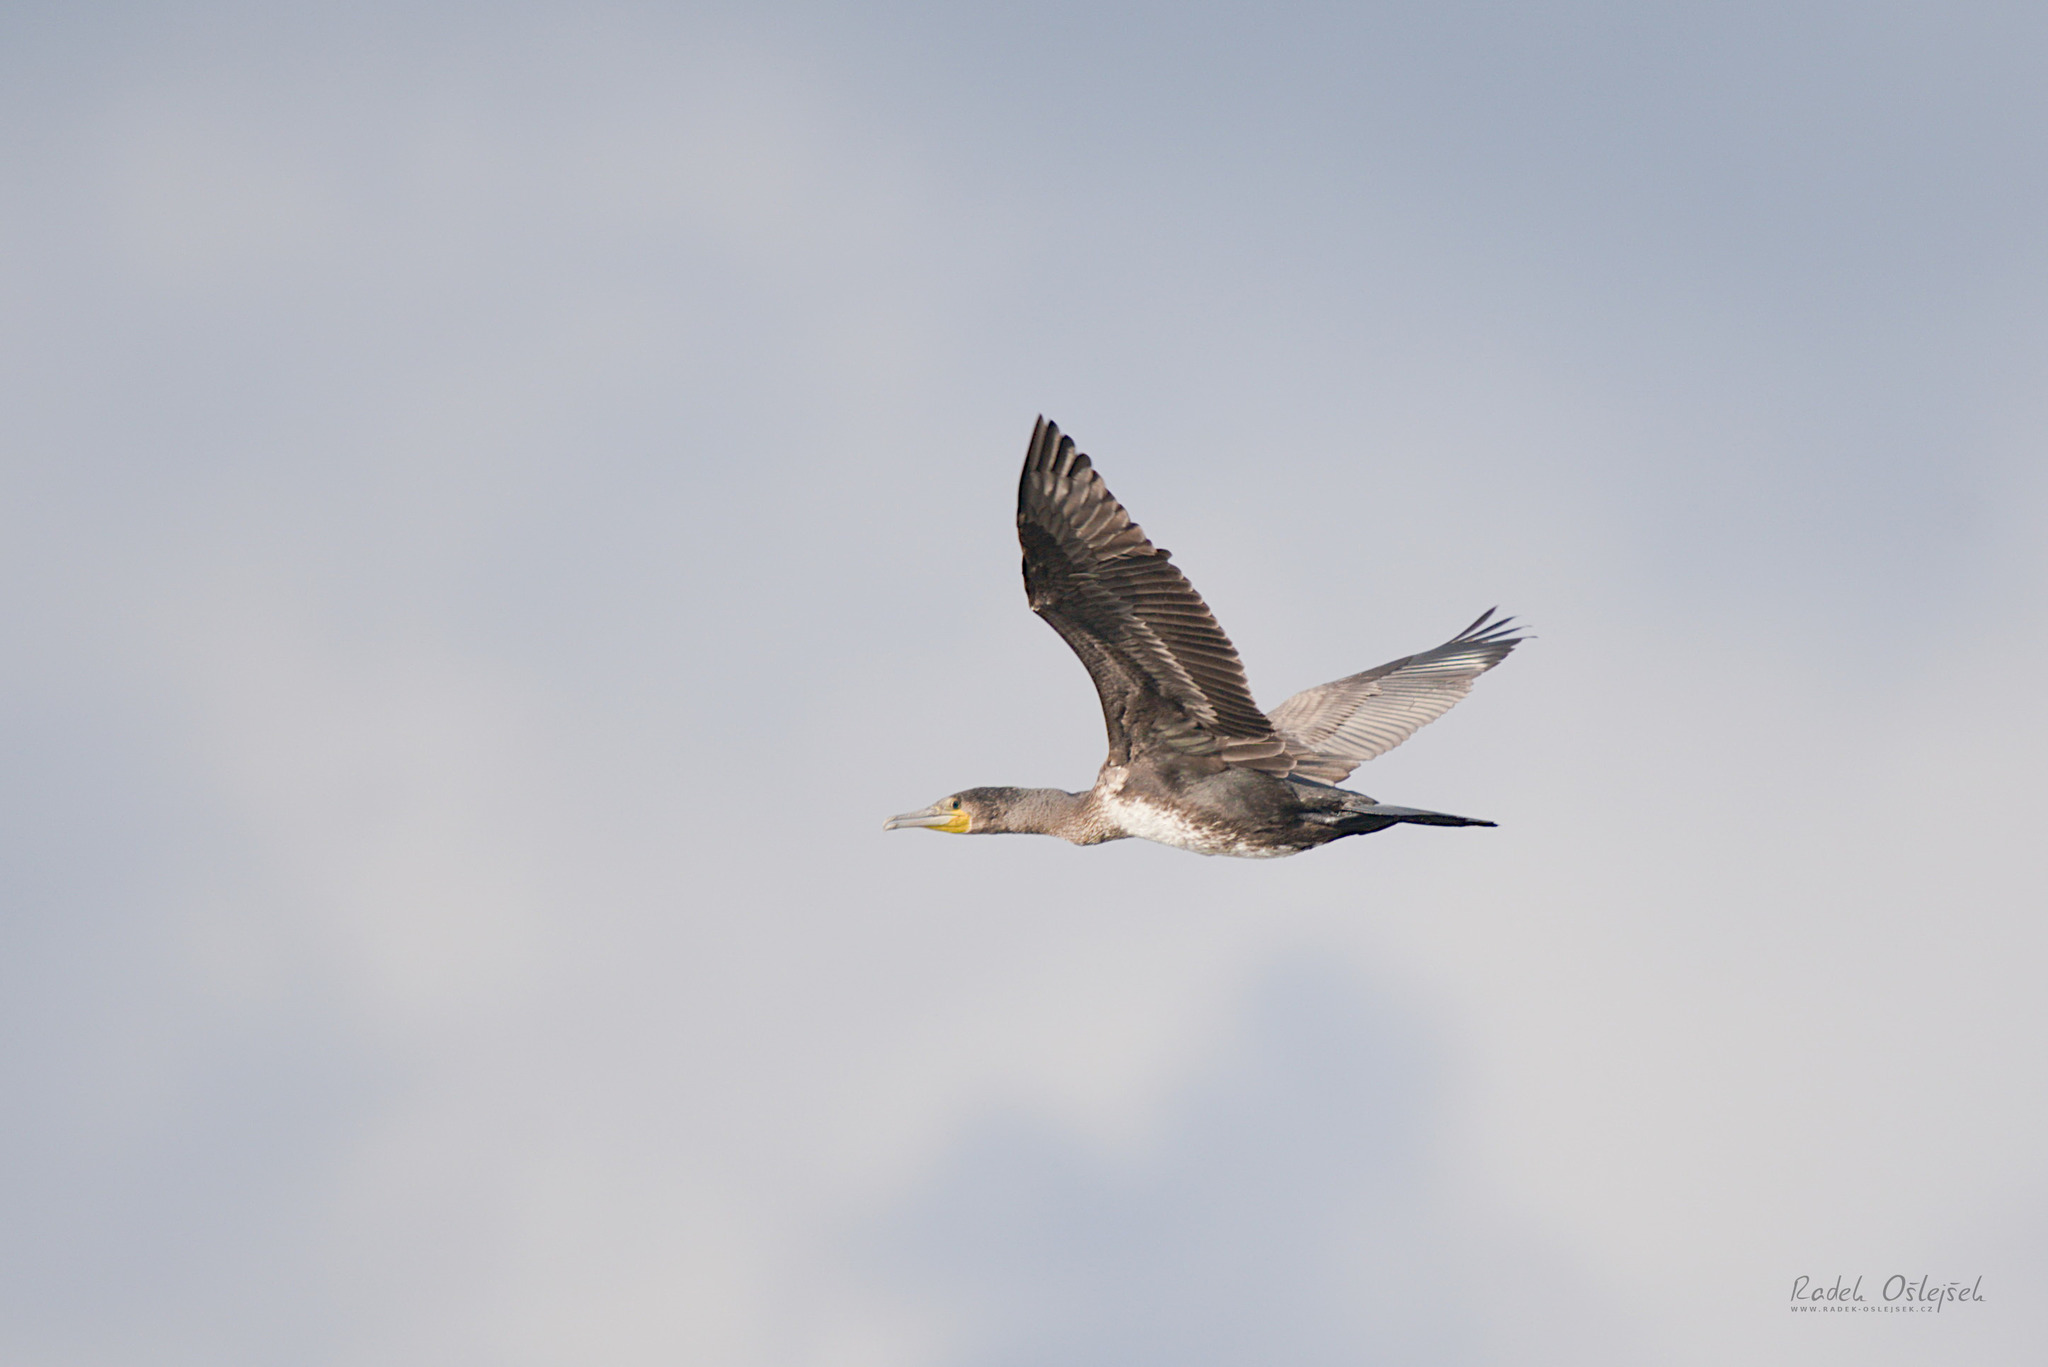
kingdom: Animalia
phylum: Chordata
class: Aves
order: Suliformes
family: Phalacrocoracidae
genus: Phalacrocorax
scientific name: Phalacrocorax carbo
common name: Great cormorant
